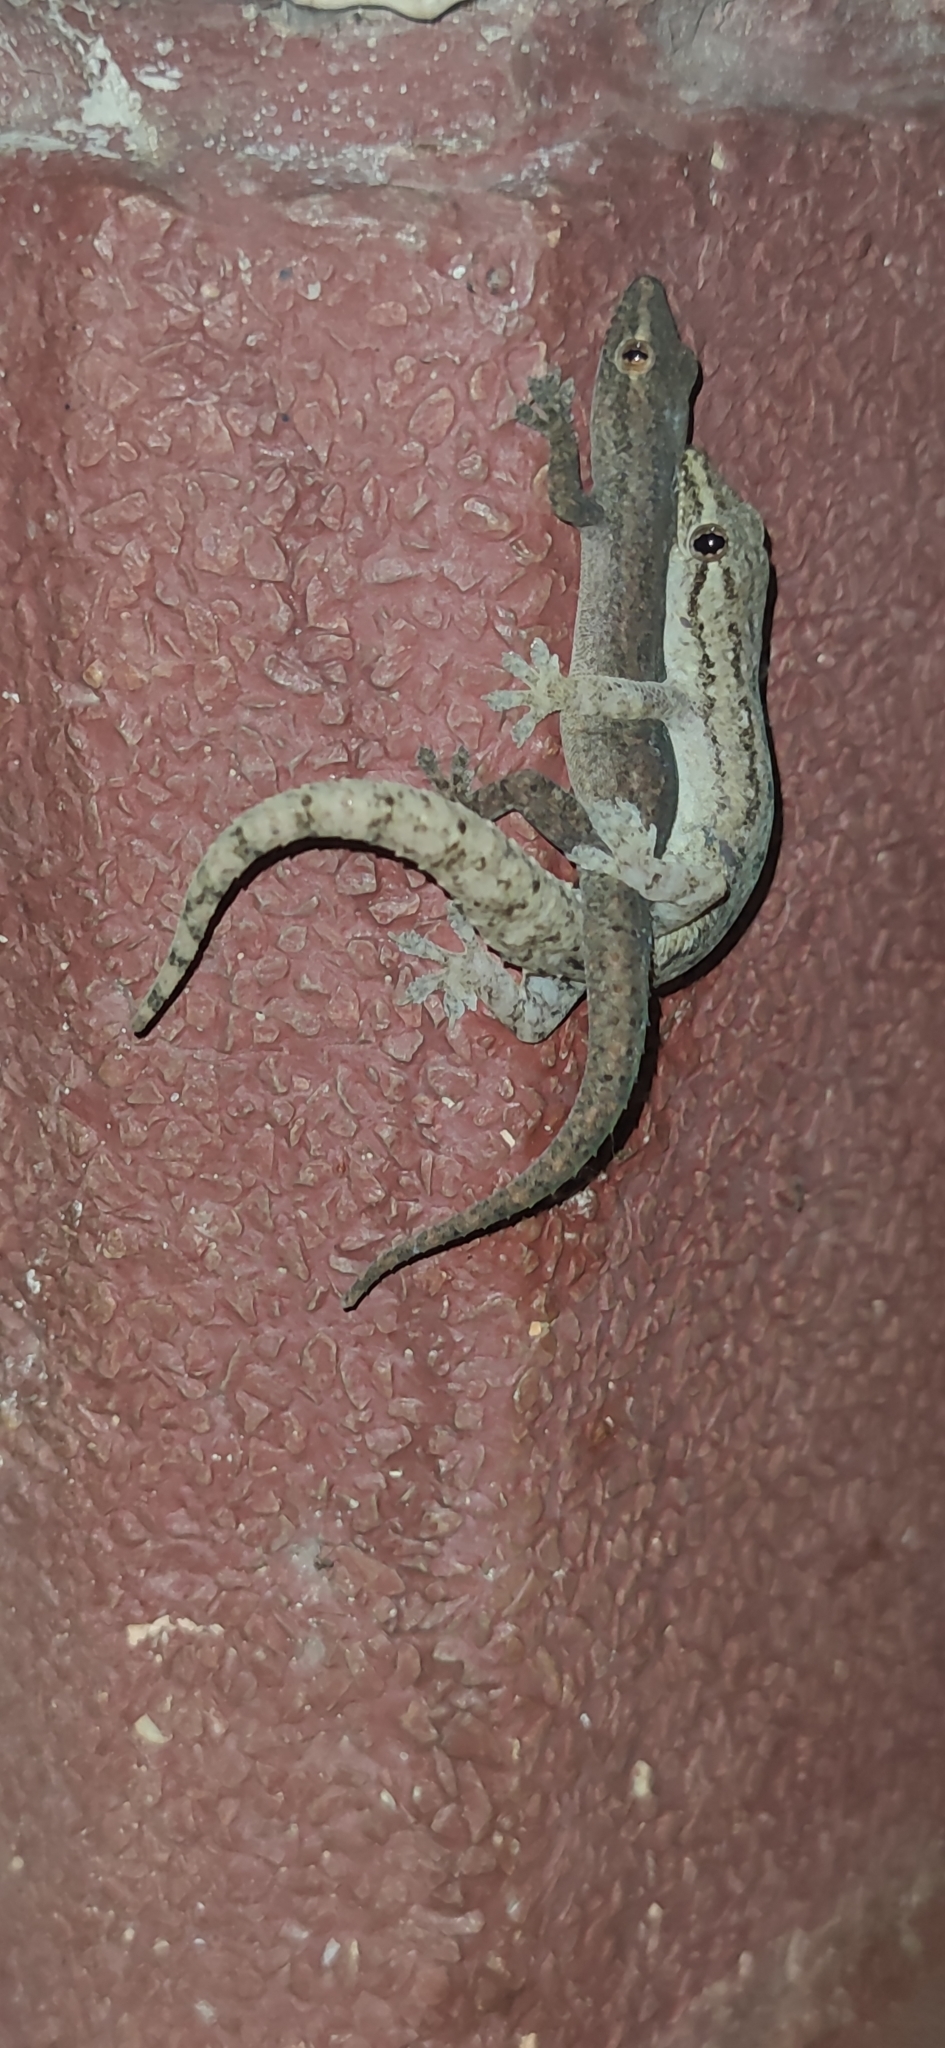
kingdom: Animalia
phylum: Chordata
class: Squamata
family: Gekkonidae
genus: Hemidactylus
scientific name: Hemidactylus frenatus
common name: Common house gecko
